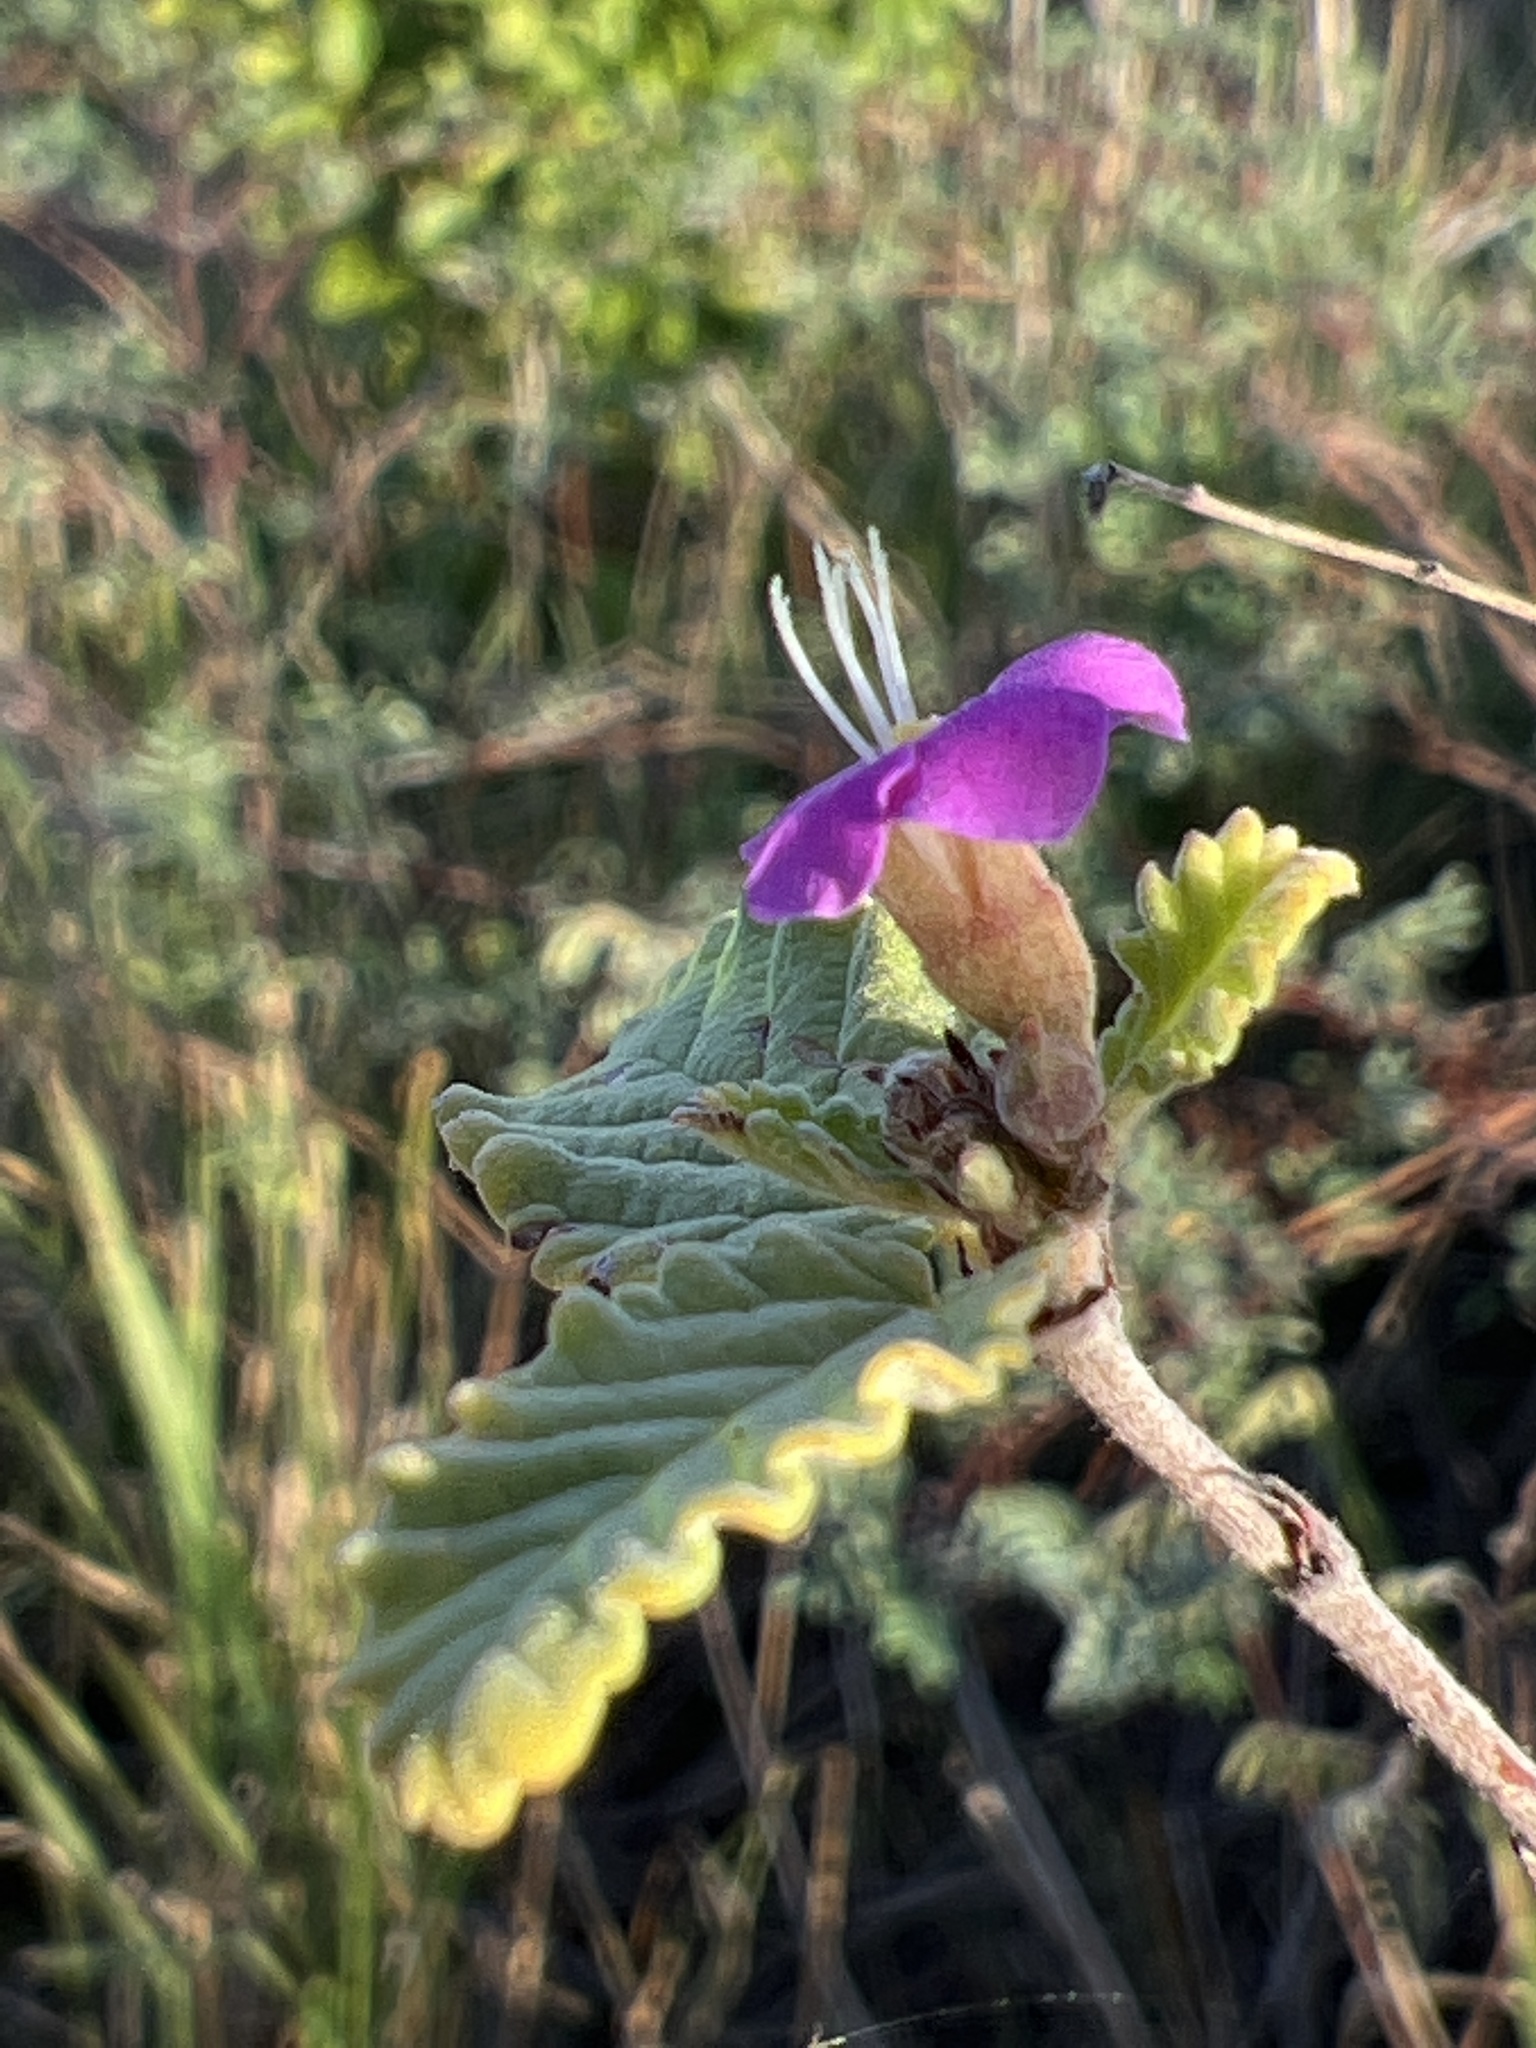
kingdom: Plantae
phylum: Tracheophyta
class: Magnoliopsida
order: Malvales
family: Malvaceae
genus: Melochia
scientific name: Melochia tomentosa
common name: Black torch
